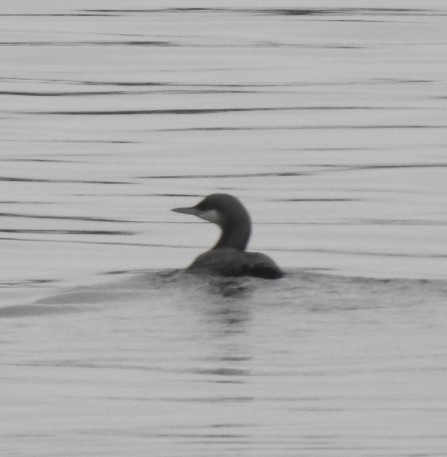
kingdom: Animalia
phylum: Chordata
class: Aves
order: Gaviiformes
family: Gaviidae
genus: Gavia
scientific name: Gavia pacifica
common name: Pacific loon
